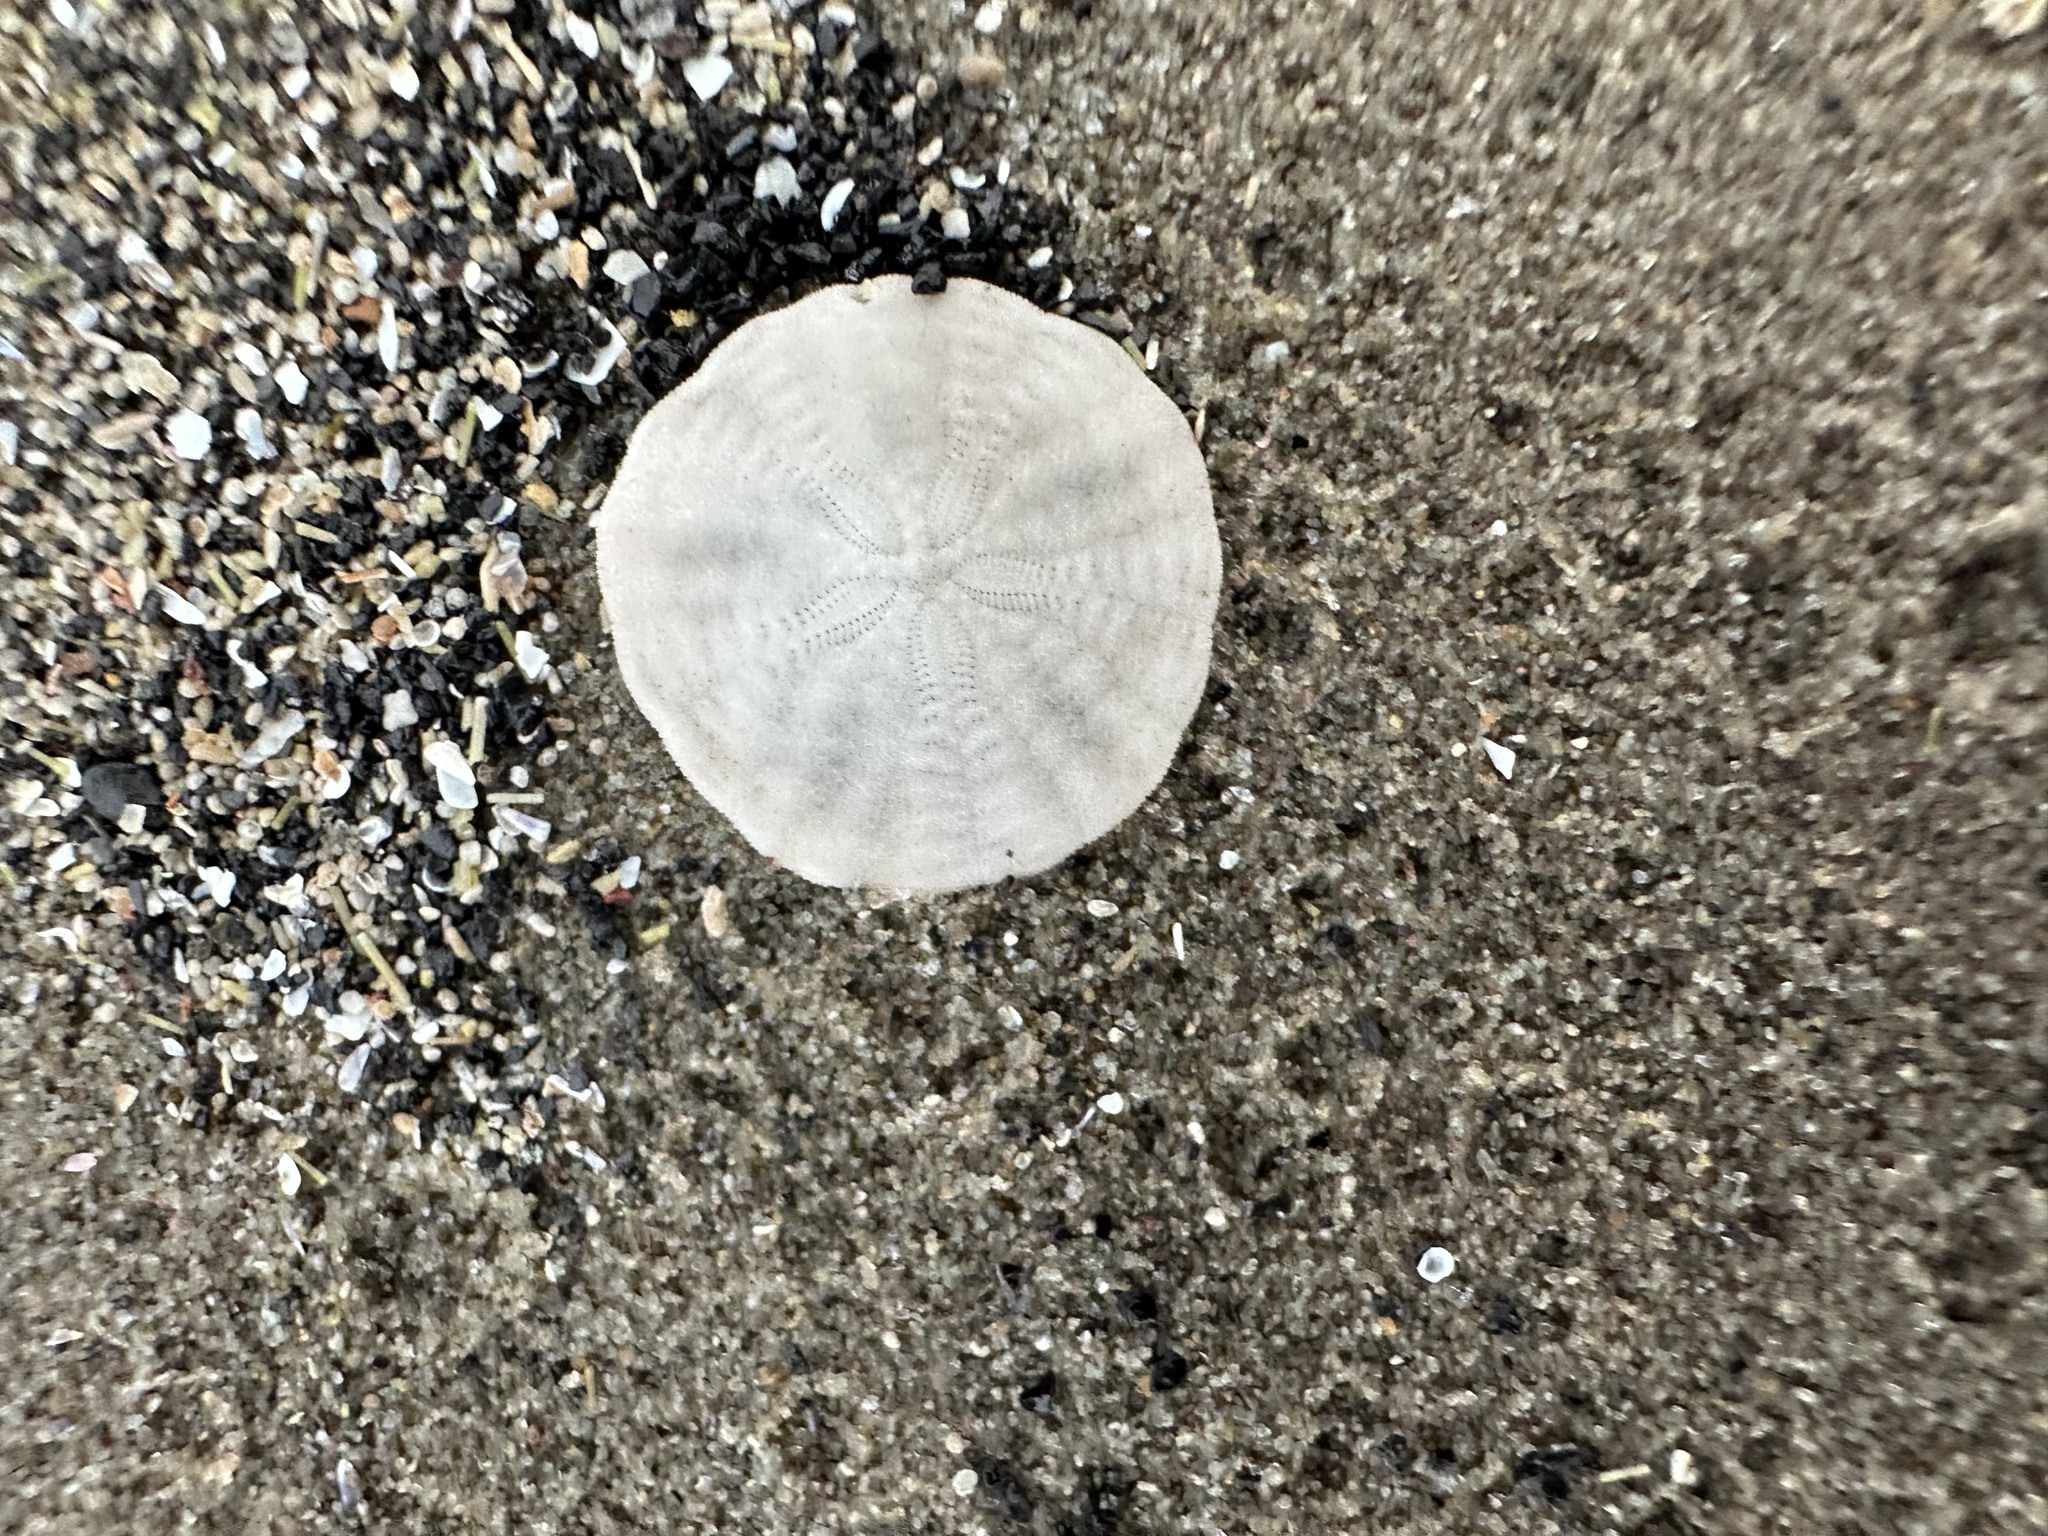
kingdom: Animalia
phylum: Echinodermata
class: Echinoidea
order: Echinolampadacea
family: Echinarachniidae
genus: Echinarachnius
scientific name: Echinarachnius parma
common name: Common sand dollar
